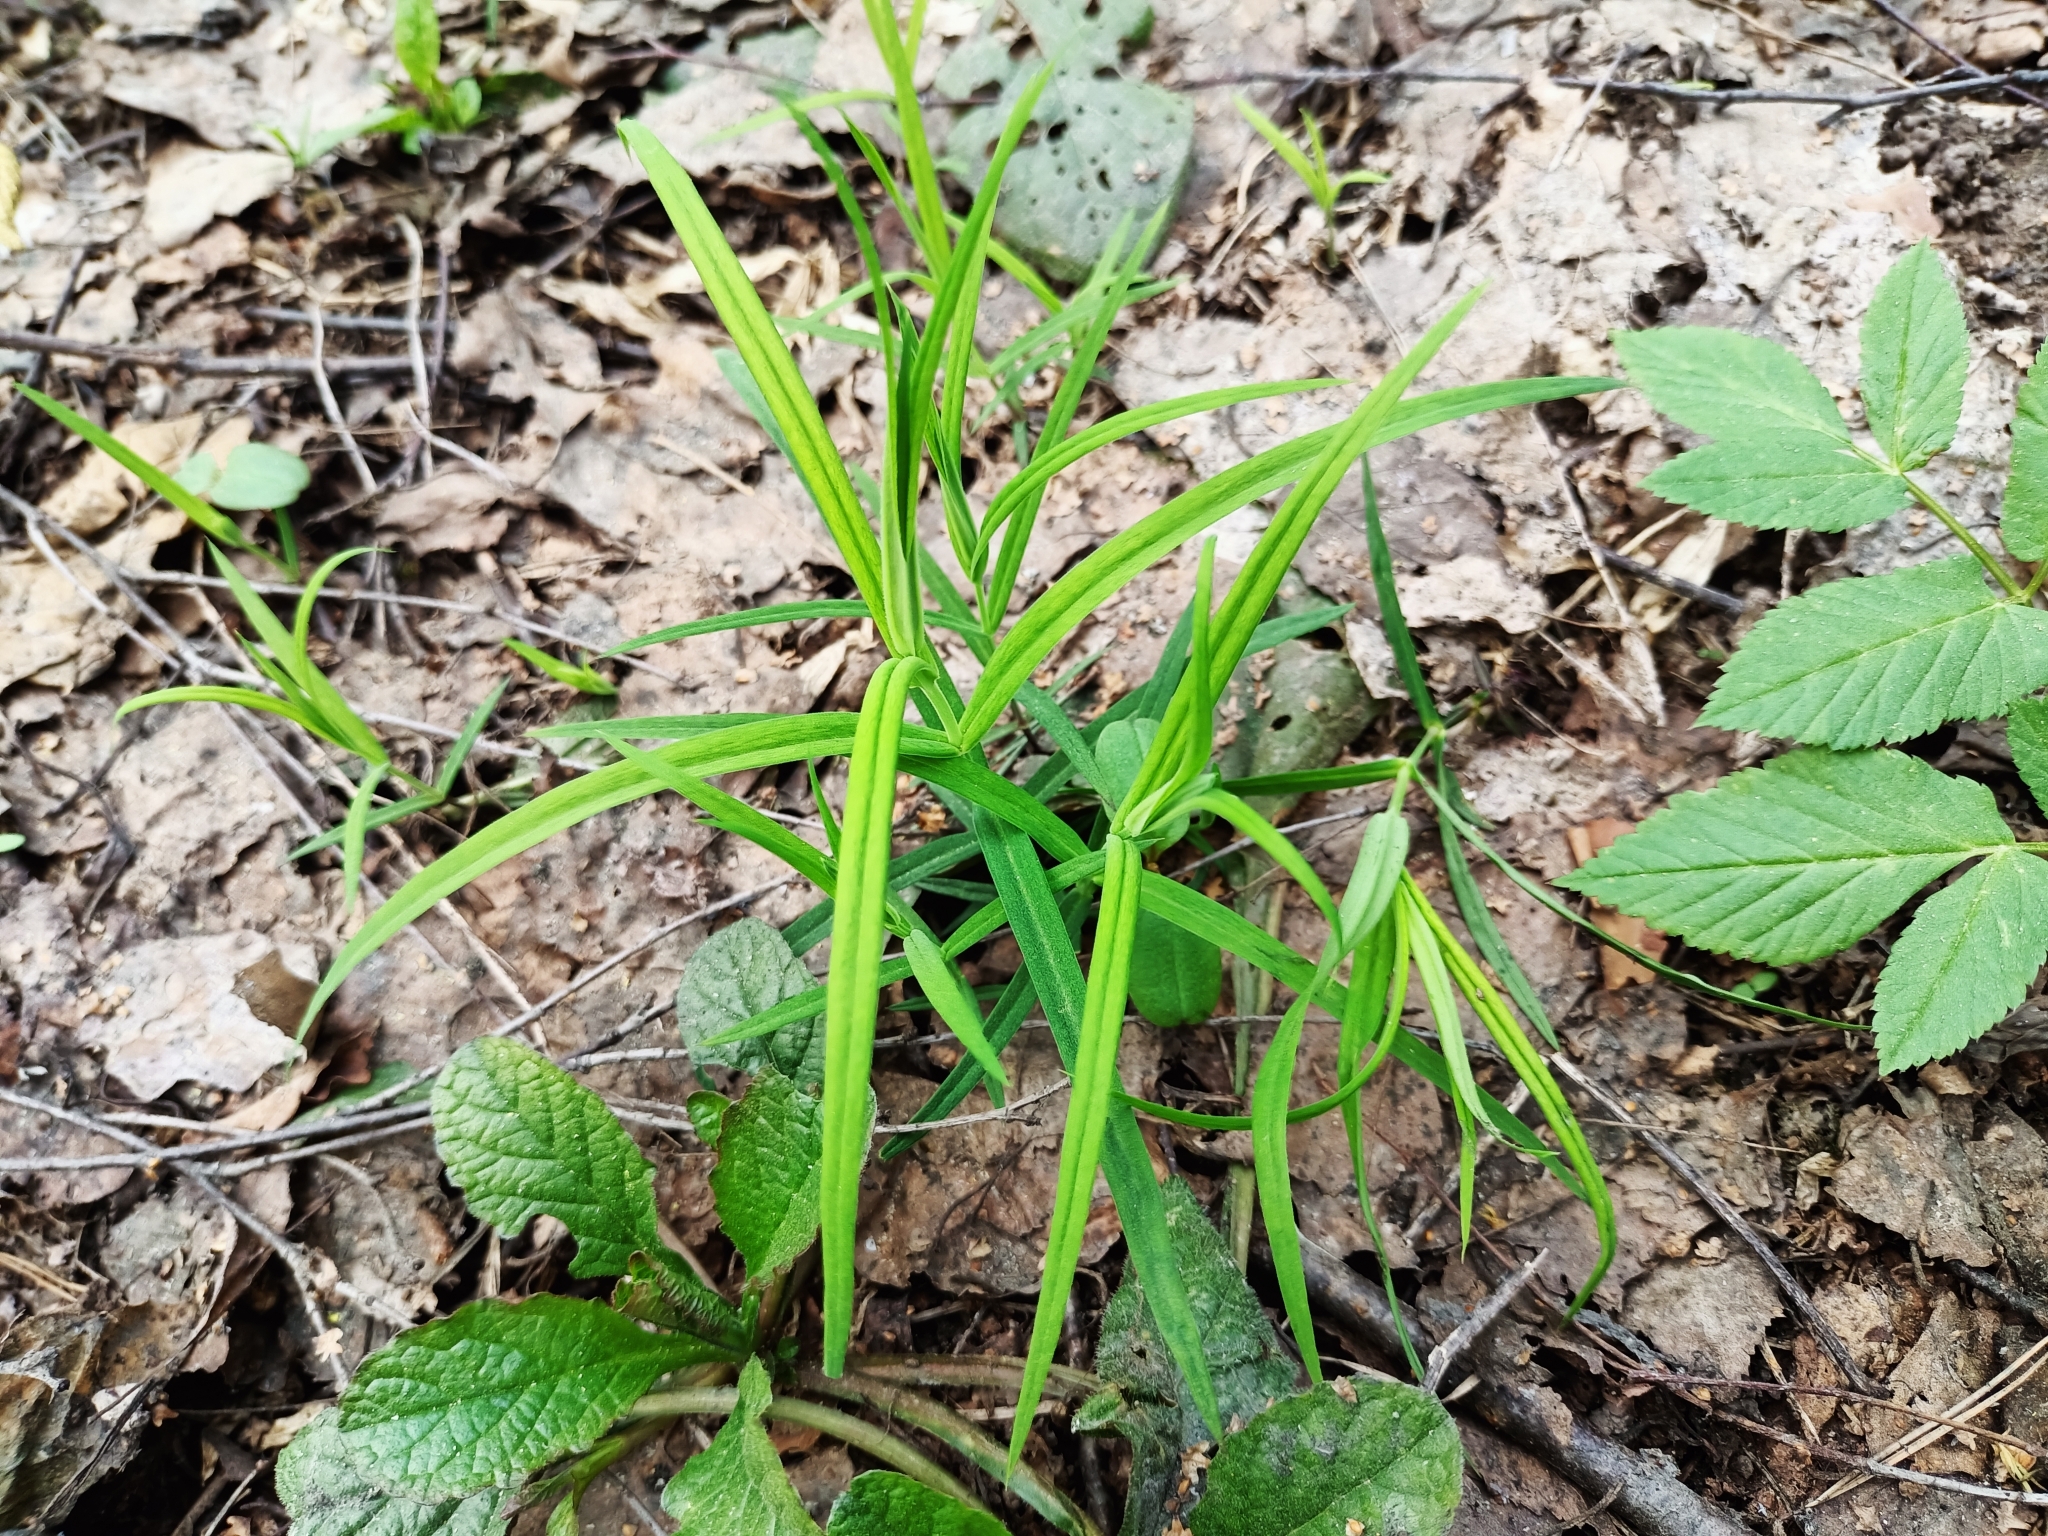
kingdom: Plantae
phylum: Tracheophyta
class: Magnoliopsida
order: Caryophyllales
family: Caryophyllaceae
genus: Rabelera
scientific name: Rabelera holostea
